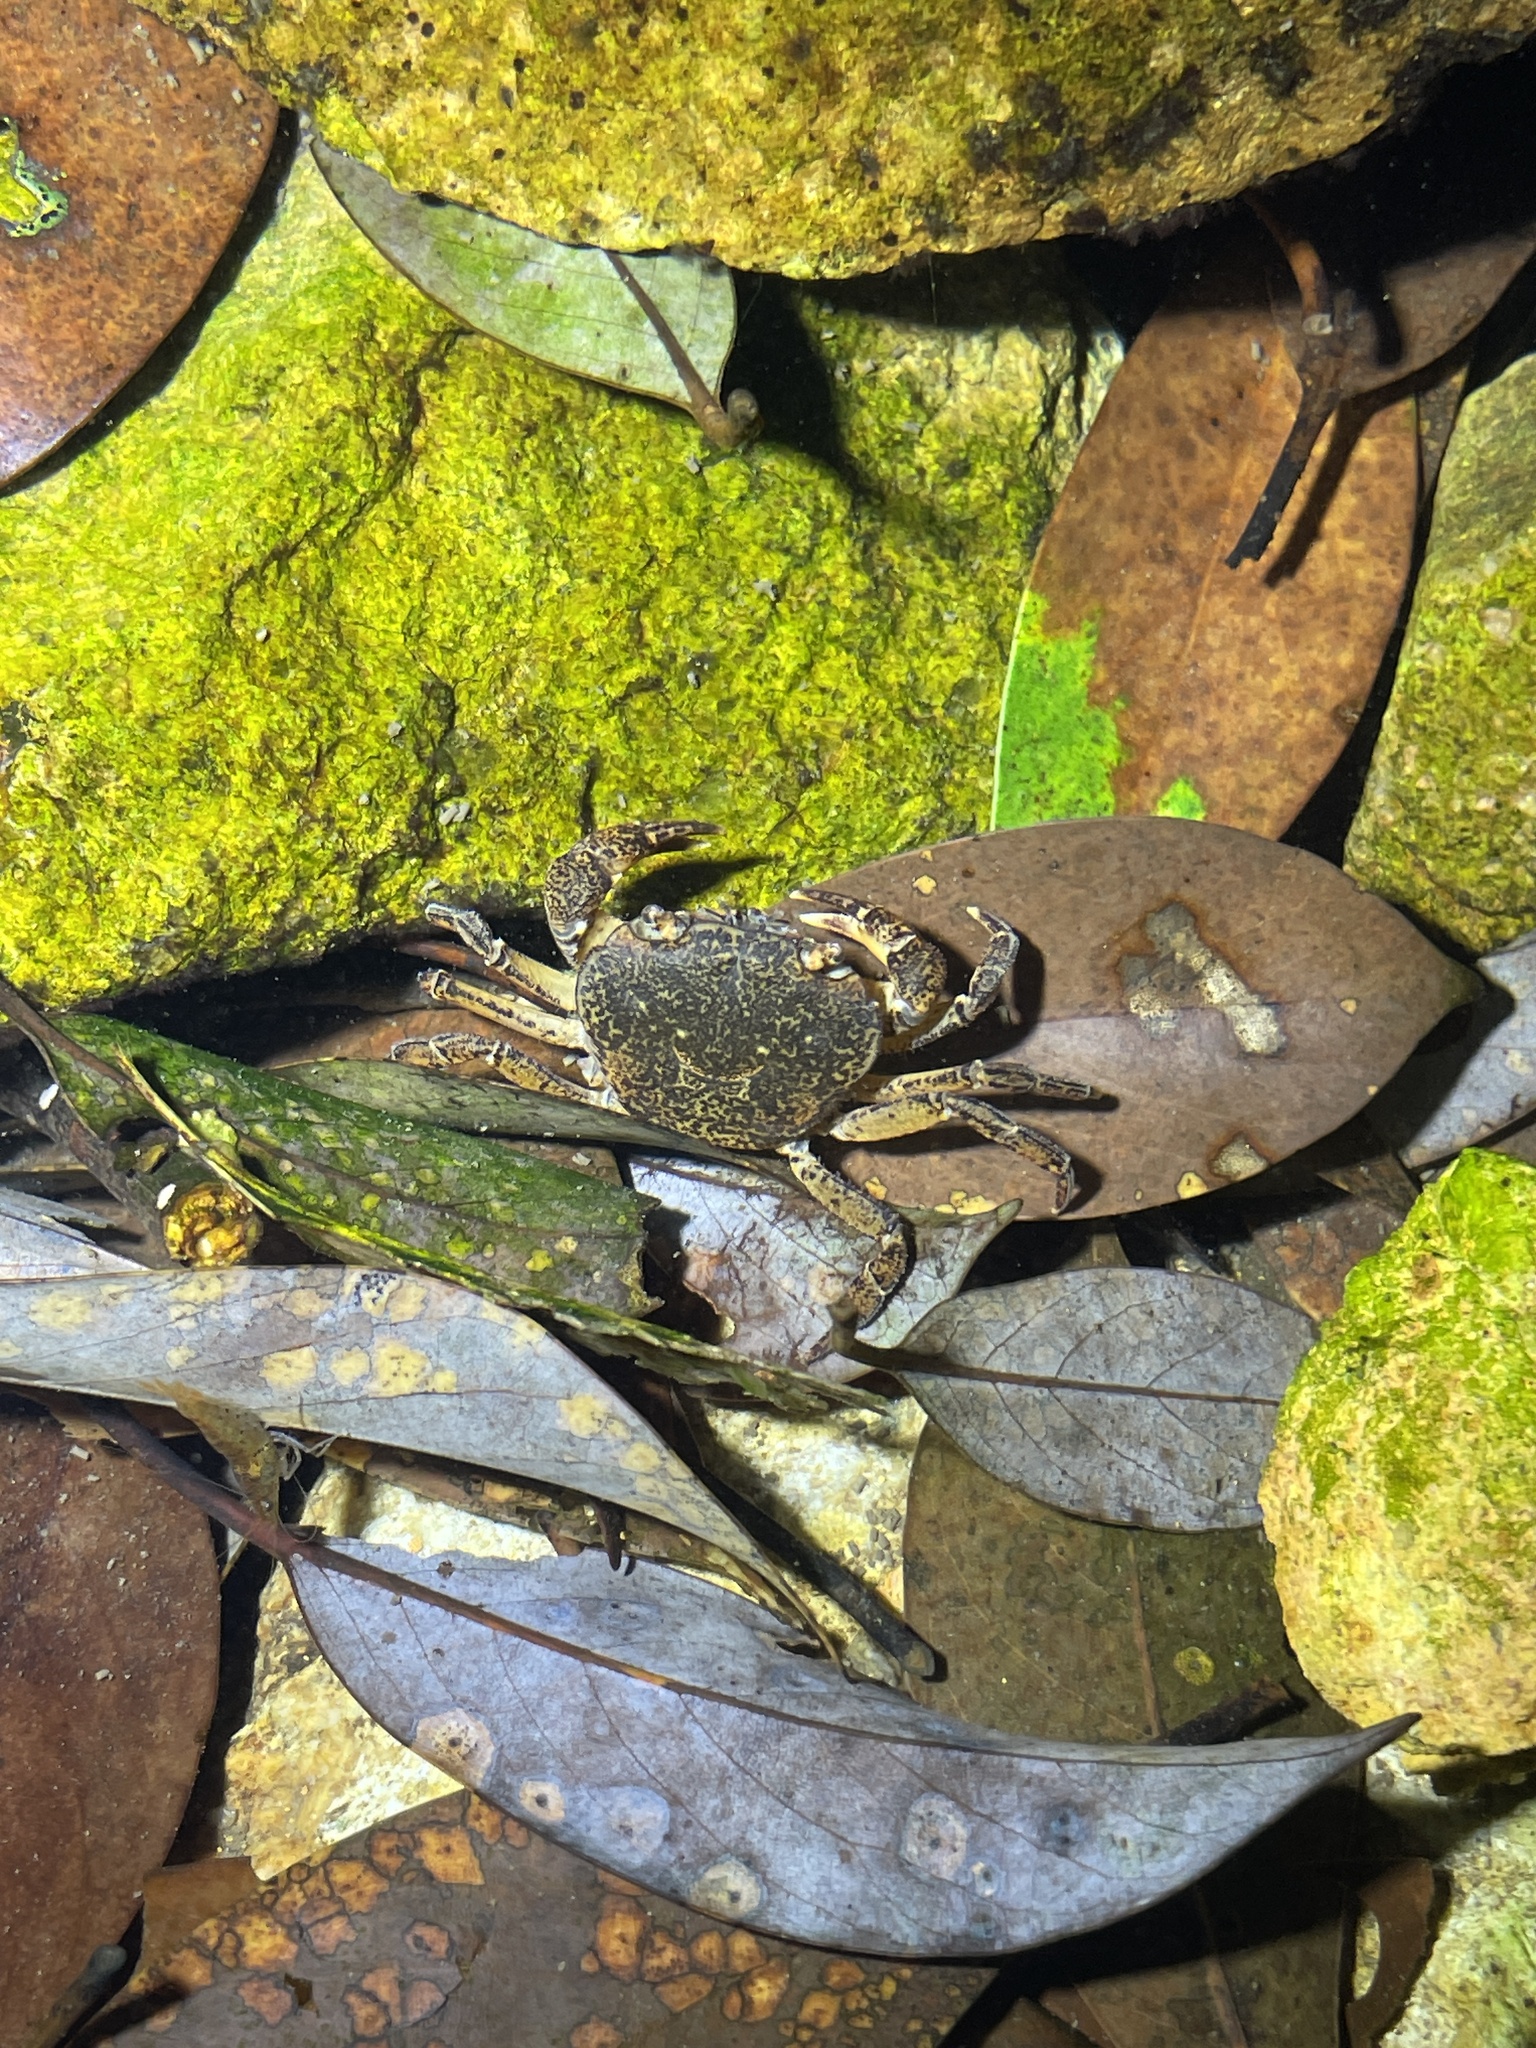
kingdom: Animalia
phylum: Arthropoda
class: Malacostraca
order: Decapoda
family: Potamidae
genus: Sinolapotamon
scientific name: Sinolapotamon anacoluthon
